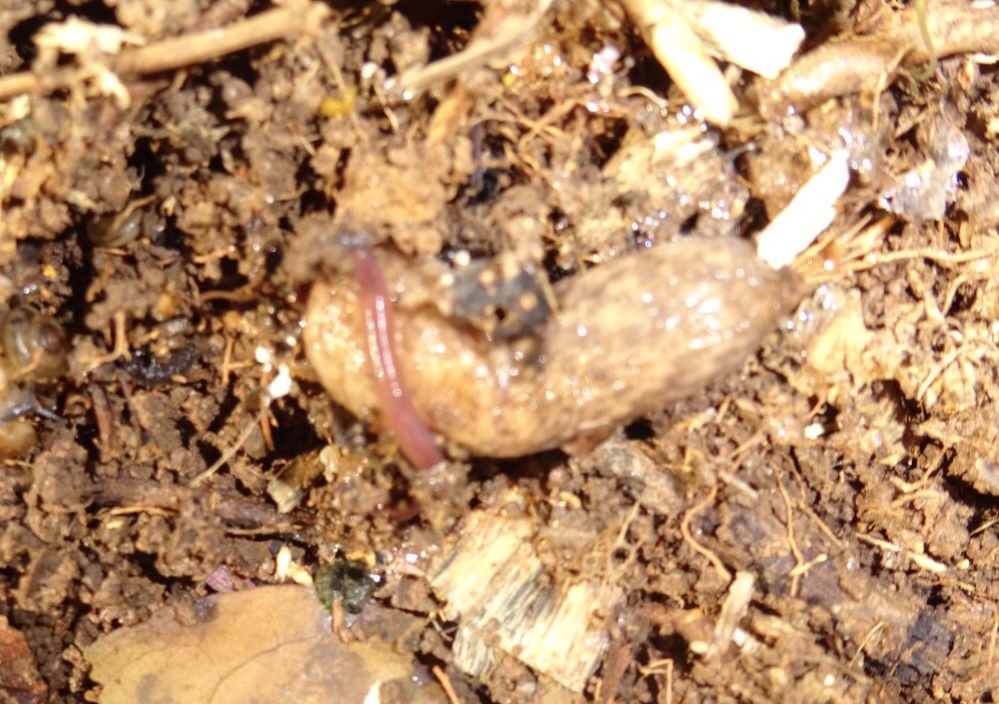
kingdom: Animalia
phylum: Mollusca
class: Gastropoda
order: Stylommatophora
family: Agriolimacidae
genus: Deroceras
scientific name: Deroceras reticulatum
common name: Gray field slug
